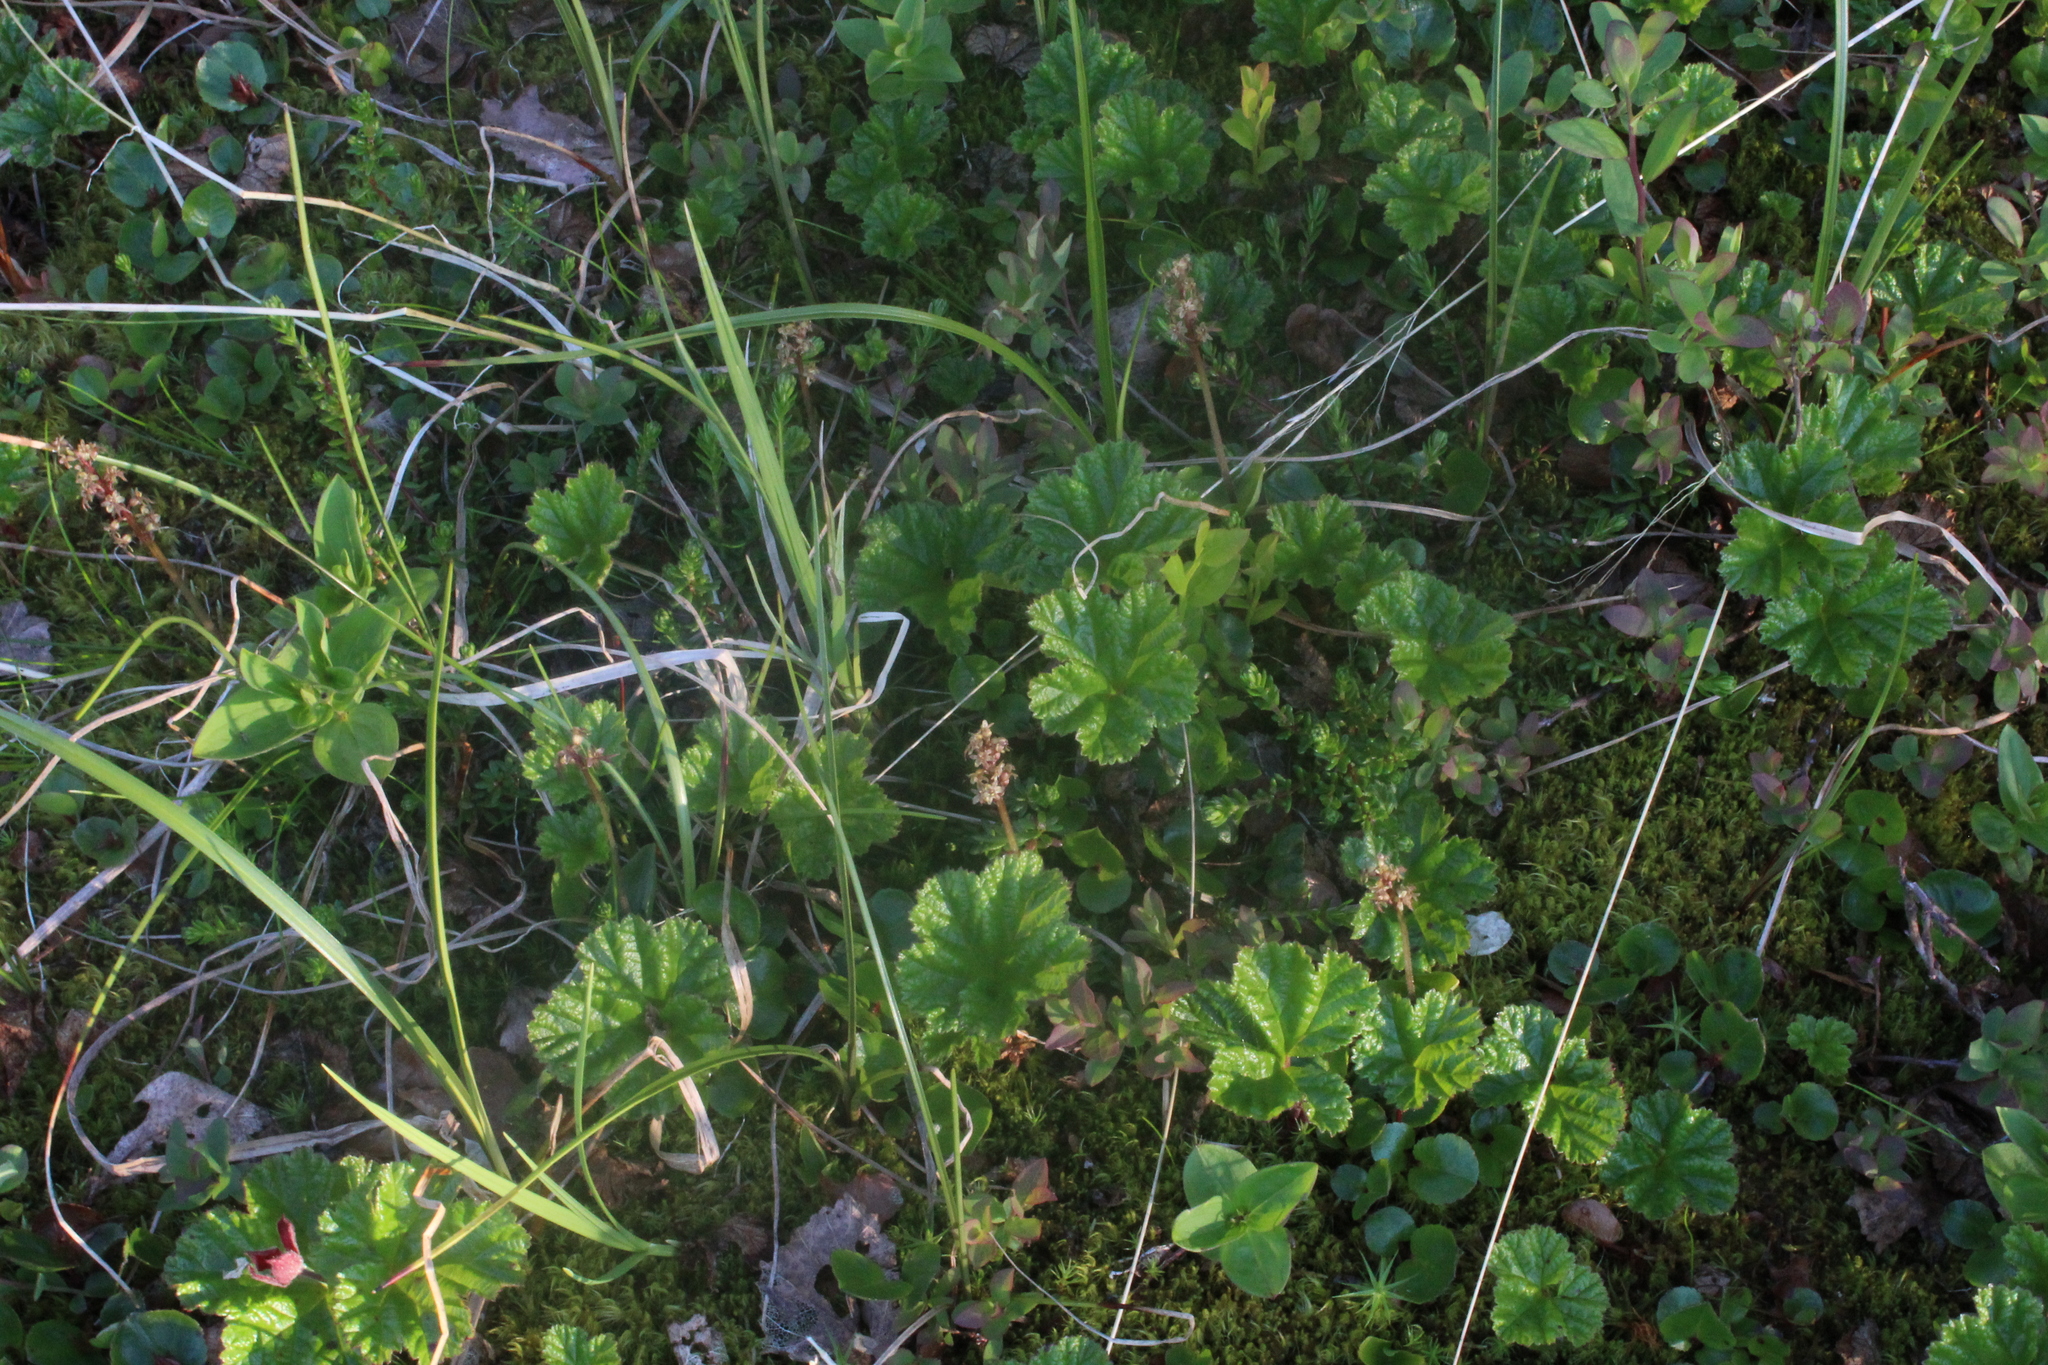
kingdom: Plantae
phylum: Tracheophyta
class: Magnoliopsida
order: Rosales
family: Rosaceae
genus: Rubus
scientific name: Rubus chamaemorus
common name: Cloudberry
